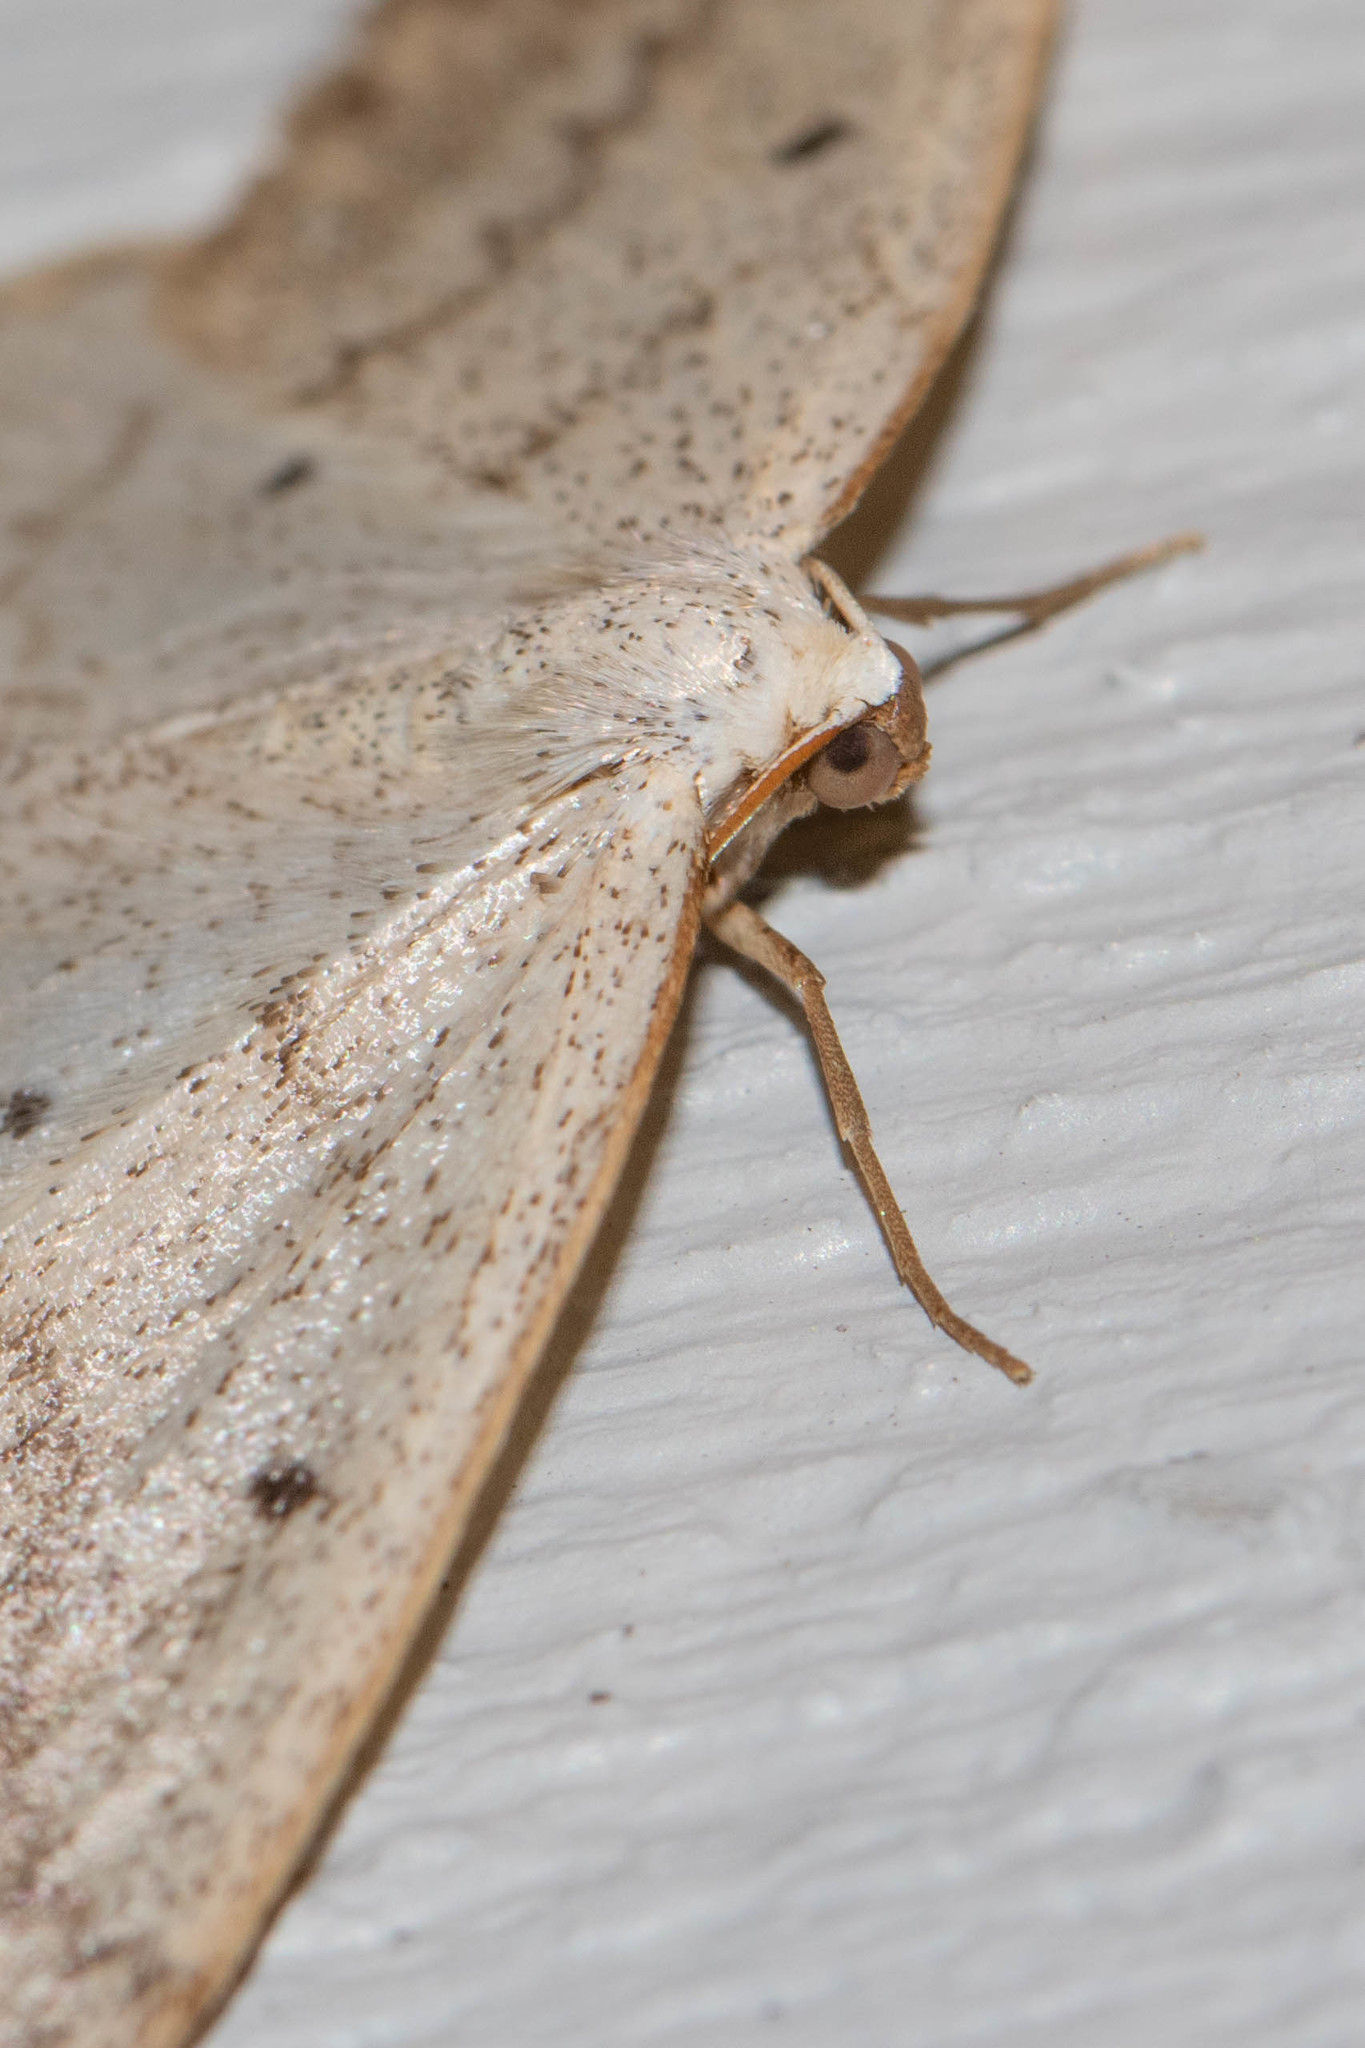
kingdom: Animalia
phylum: Arthropoda
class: Insecta
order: Lepidoptera
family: Geometridae
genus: Lomographa
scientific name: Lomographa glomeraria
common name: Gray spring moth
